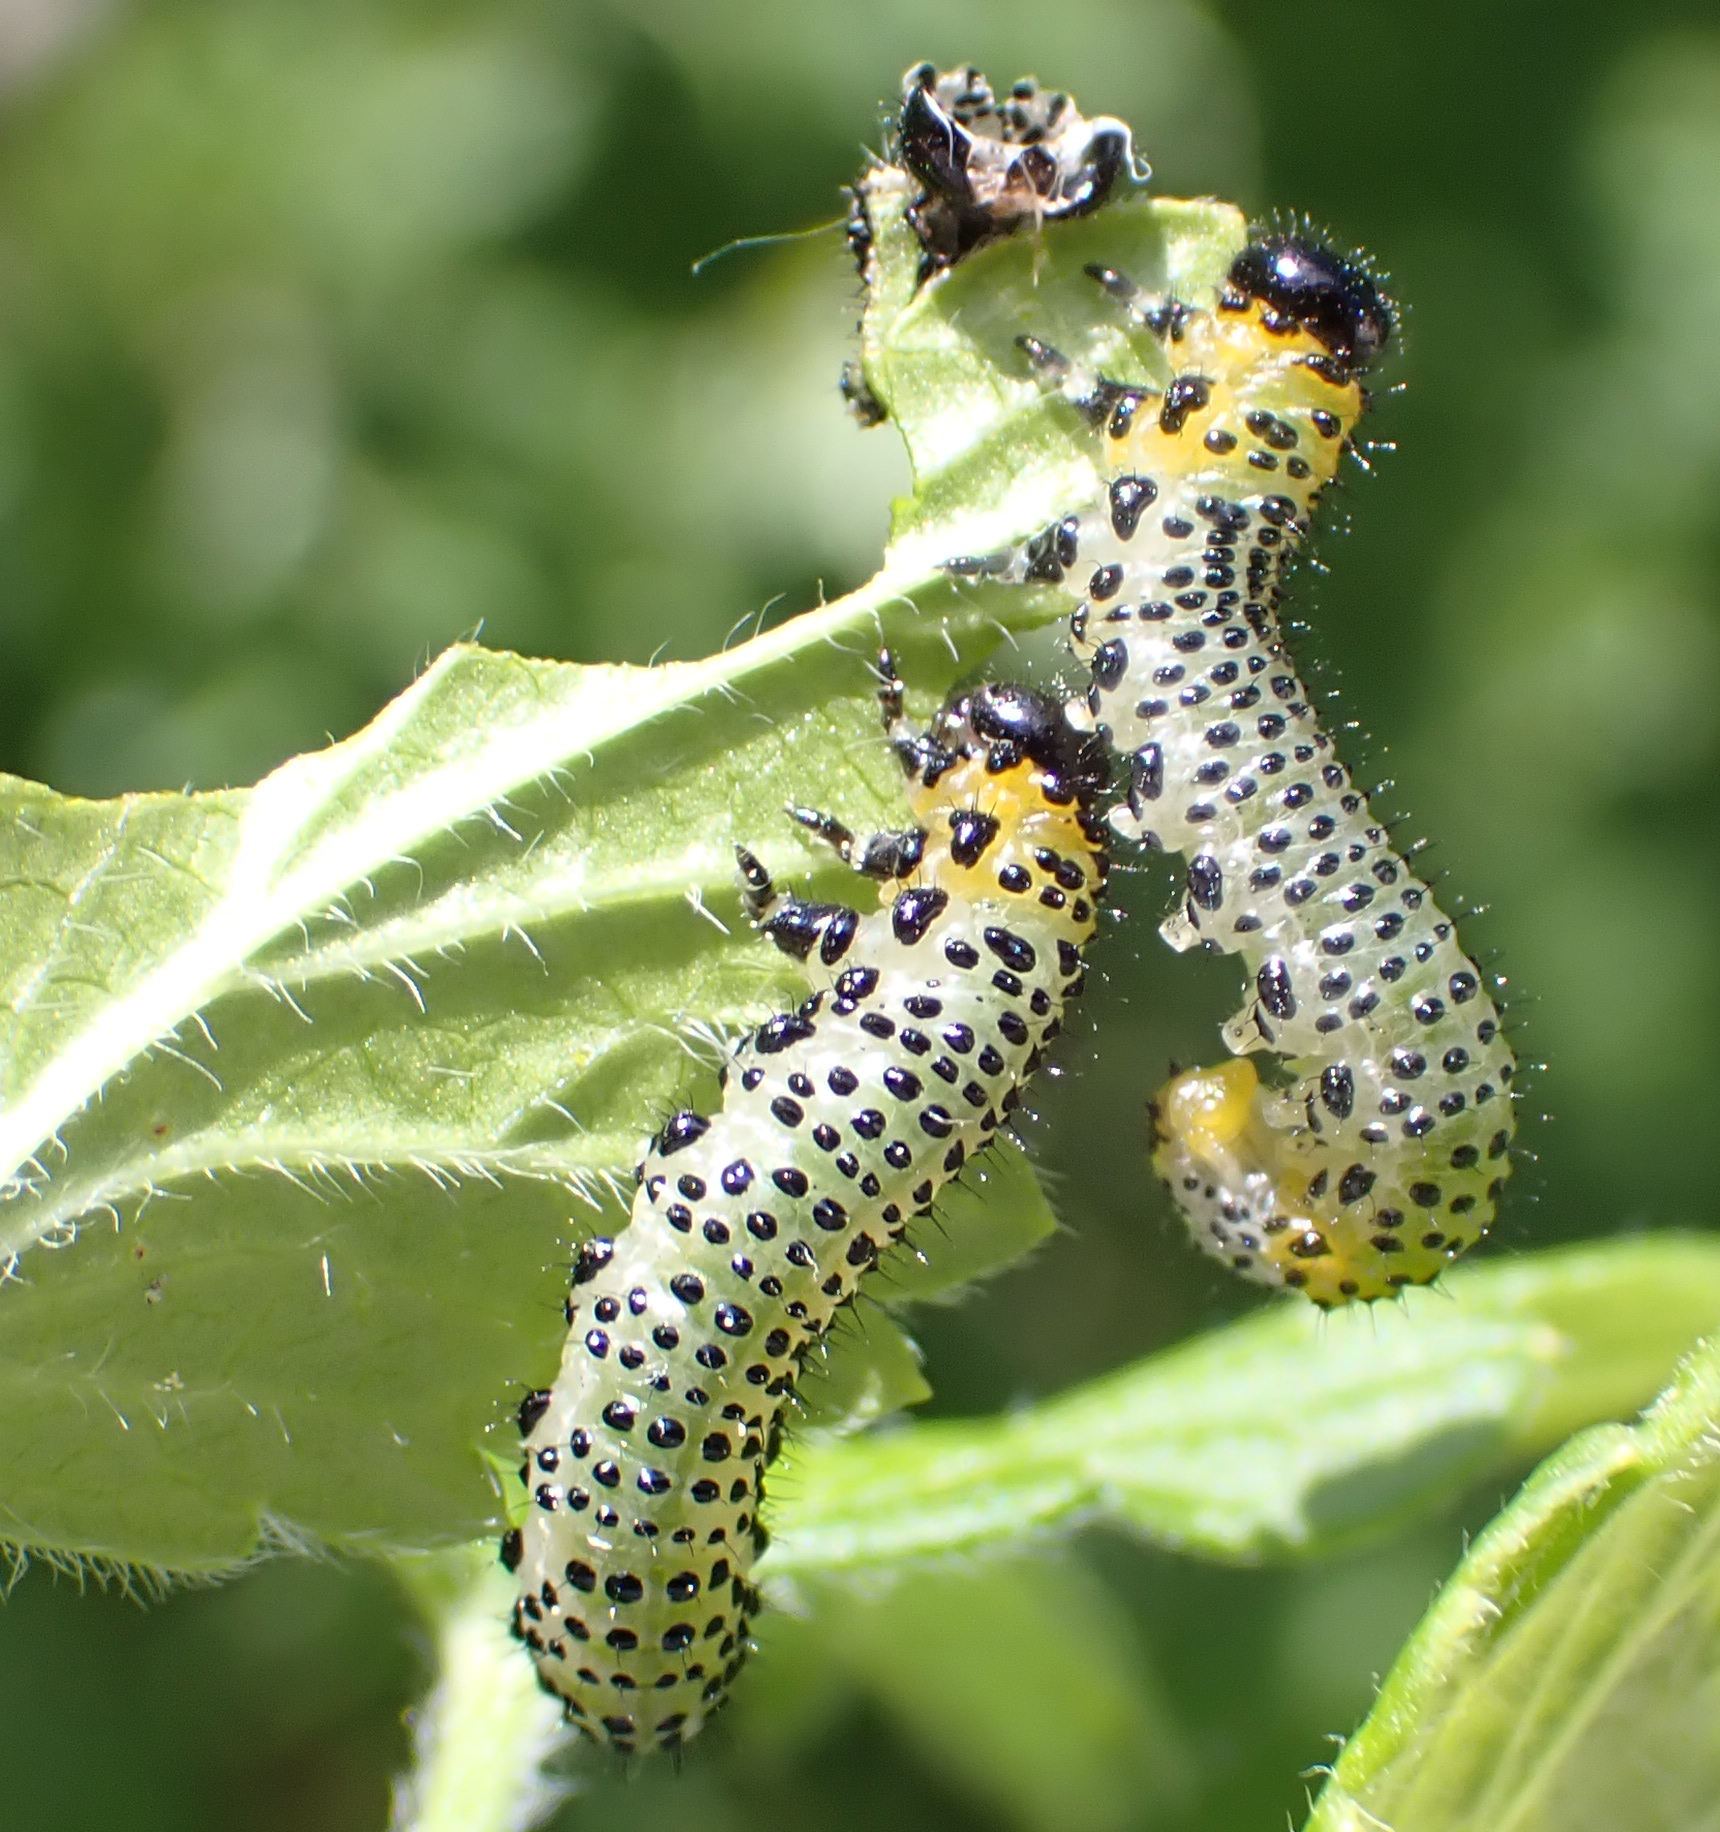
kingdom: Animalia
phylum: Arthropoda
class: Insecta
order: Hymenoptera
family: Tenthredinidae
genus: Nematus
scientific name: Nematus ribesii
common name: Imported currantworm
